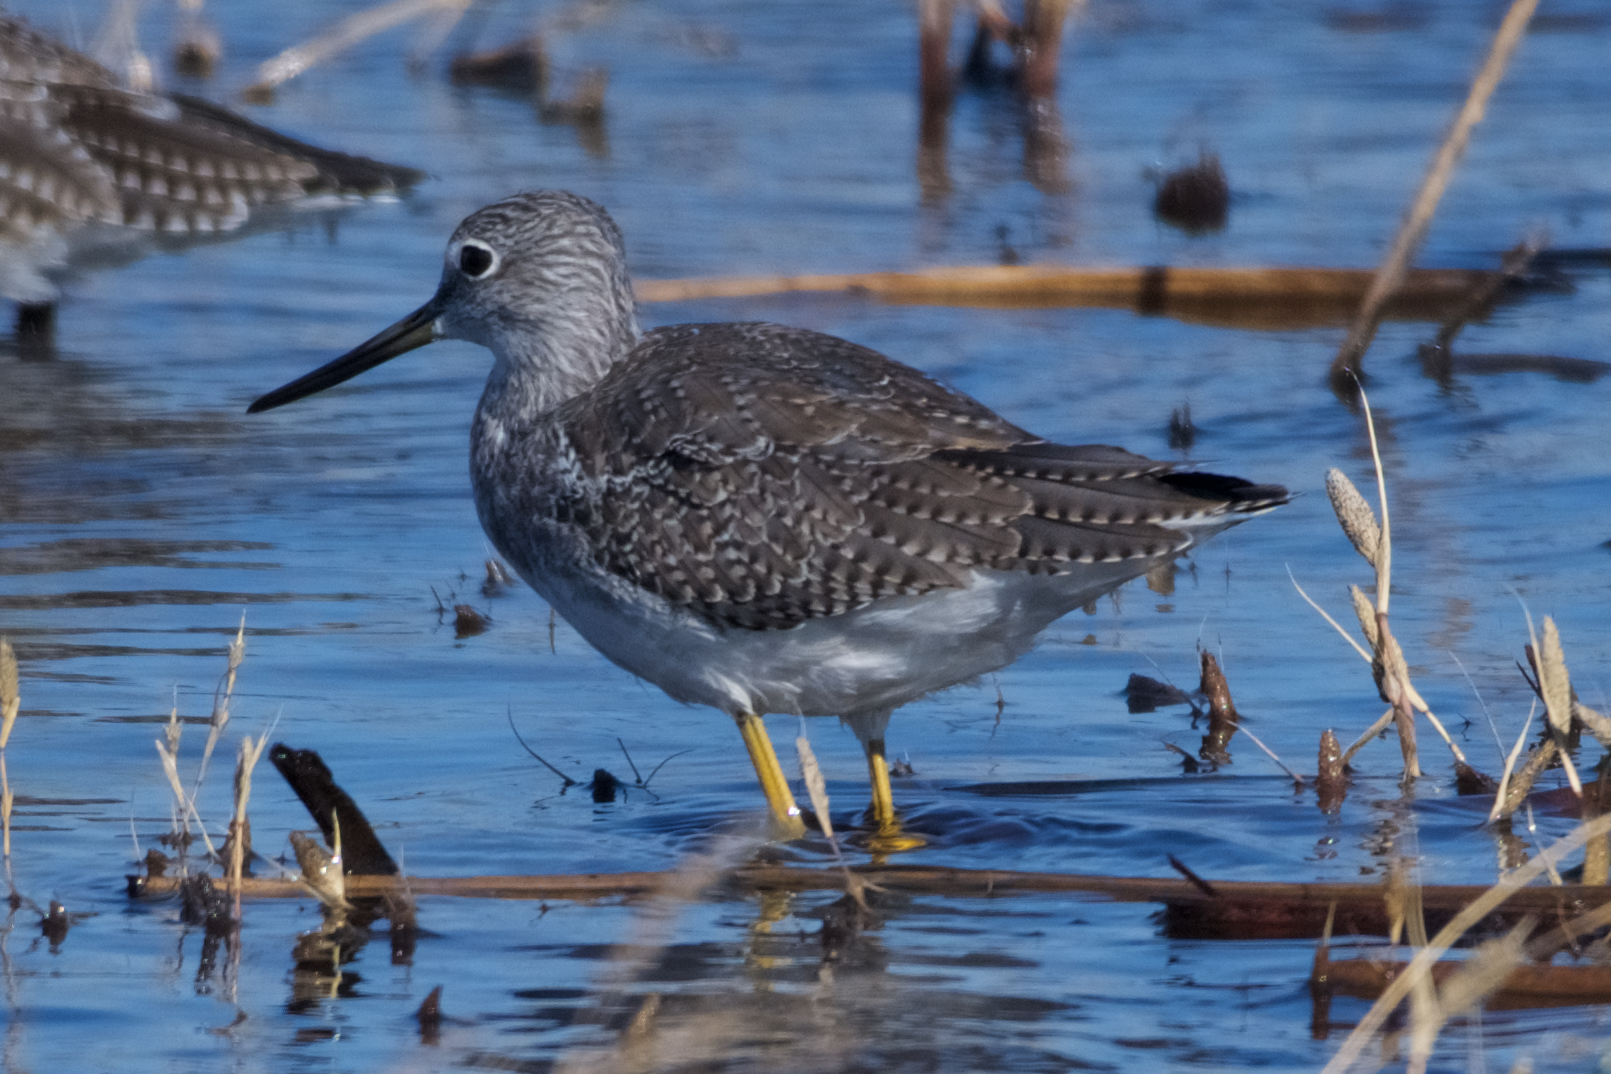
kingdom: Animalia
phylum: Chordata
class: Aves
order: Charadriiformes
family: Scolopacidae
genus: Tringa
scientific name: Tringa melanoleuca
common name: Greater yellowlegs
